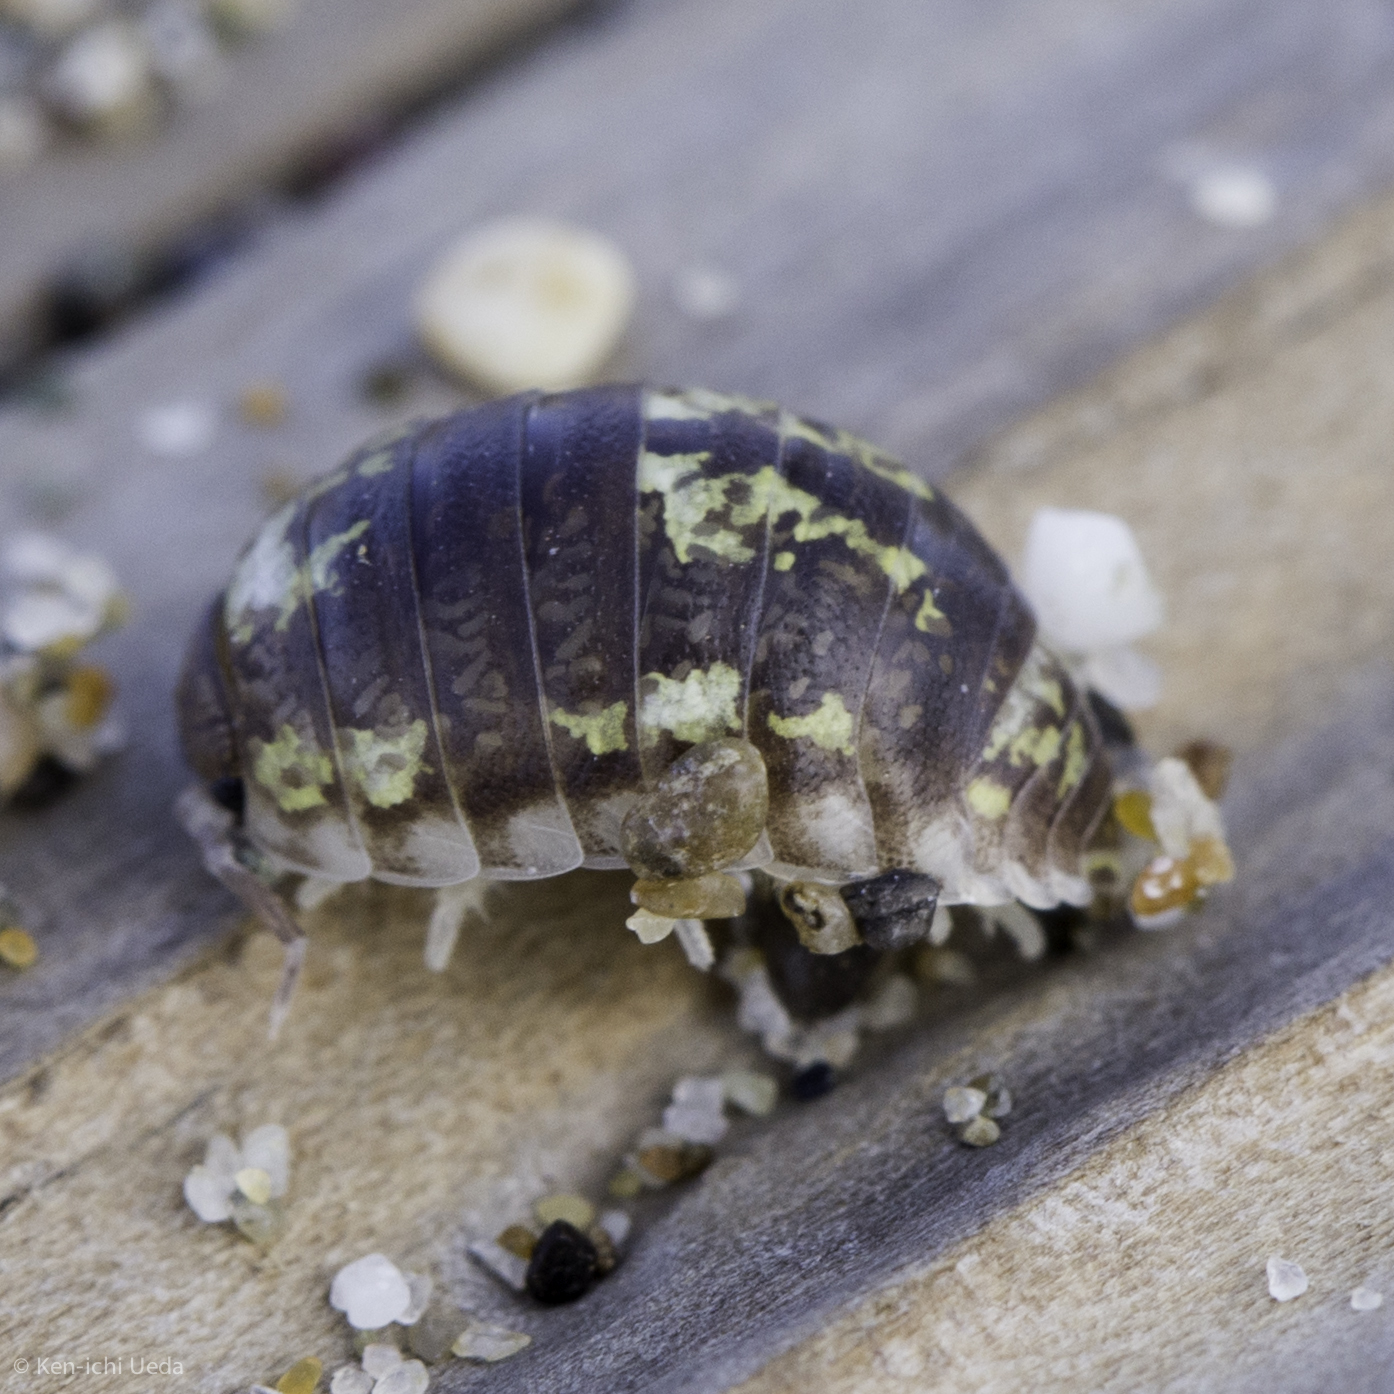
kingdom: Animalia
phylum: Arthropoda
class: Malacostraca
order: Isopoda
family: Alloniscidae
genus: Alloniscus
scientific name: Alloniscus perconvexus
